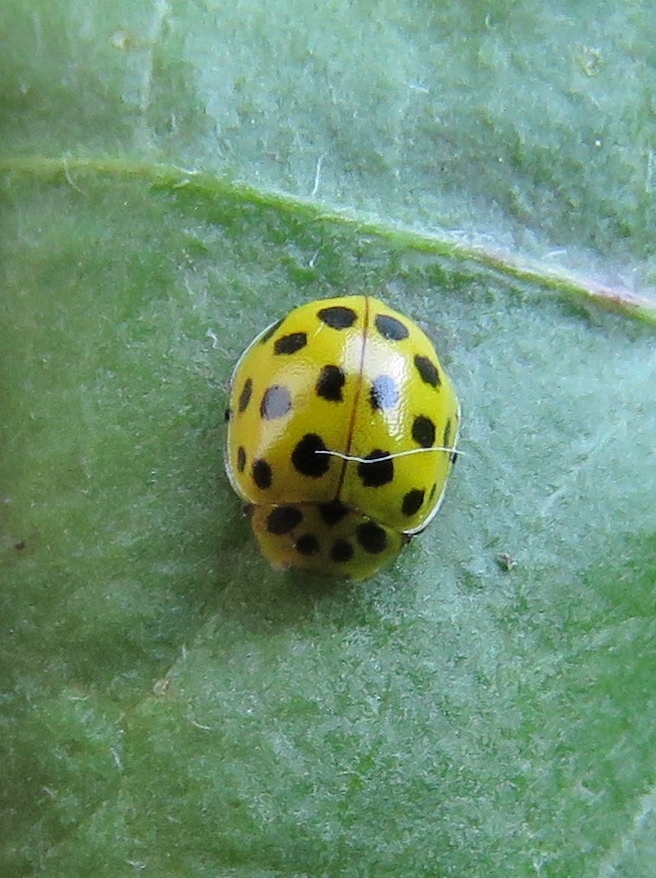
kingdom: Animalia
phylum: Arthropoda
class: Insecta
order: Coleoptera
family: Coccinellidae
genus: Psyllobora
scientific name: Psyllobora vigintiduopunctata
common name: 22-spot ladybird
